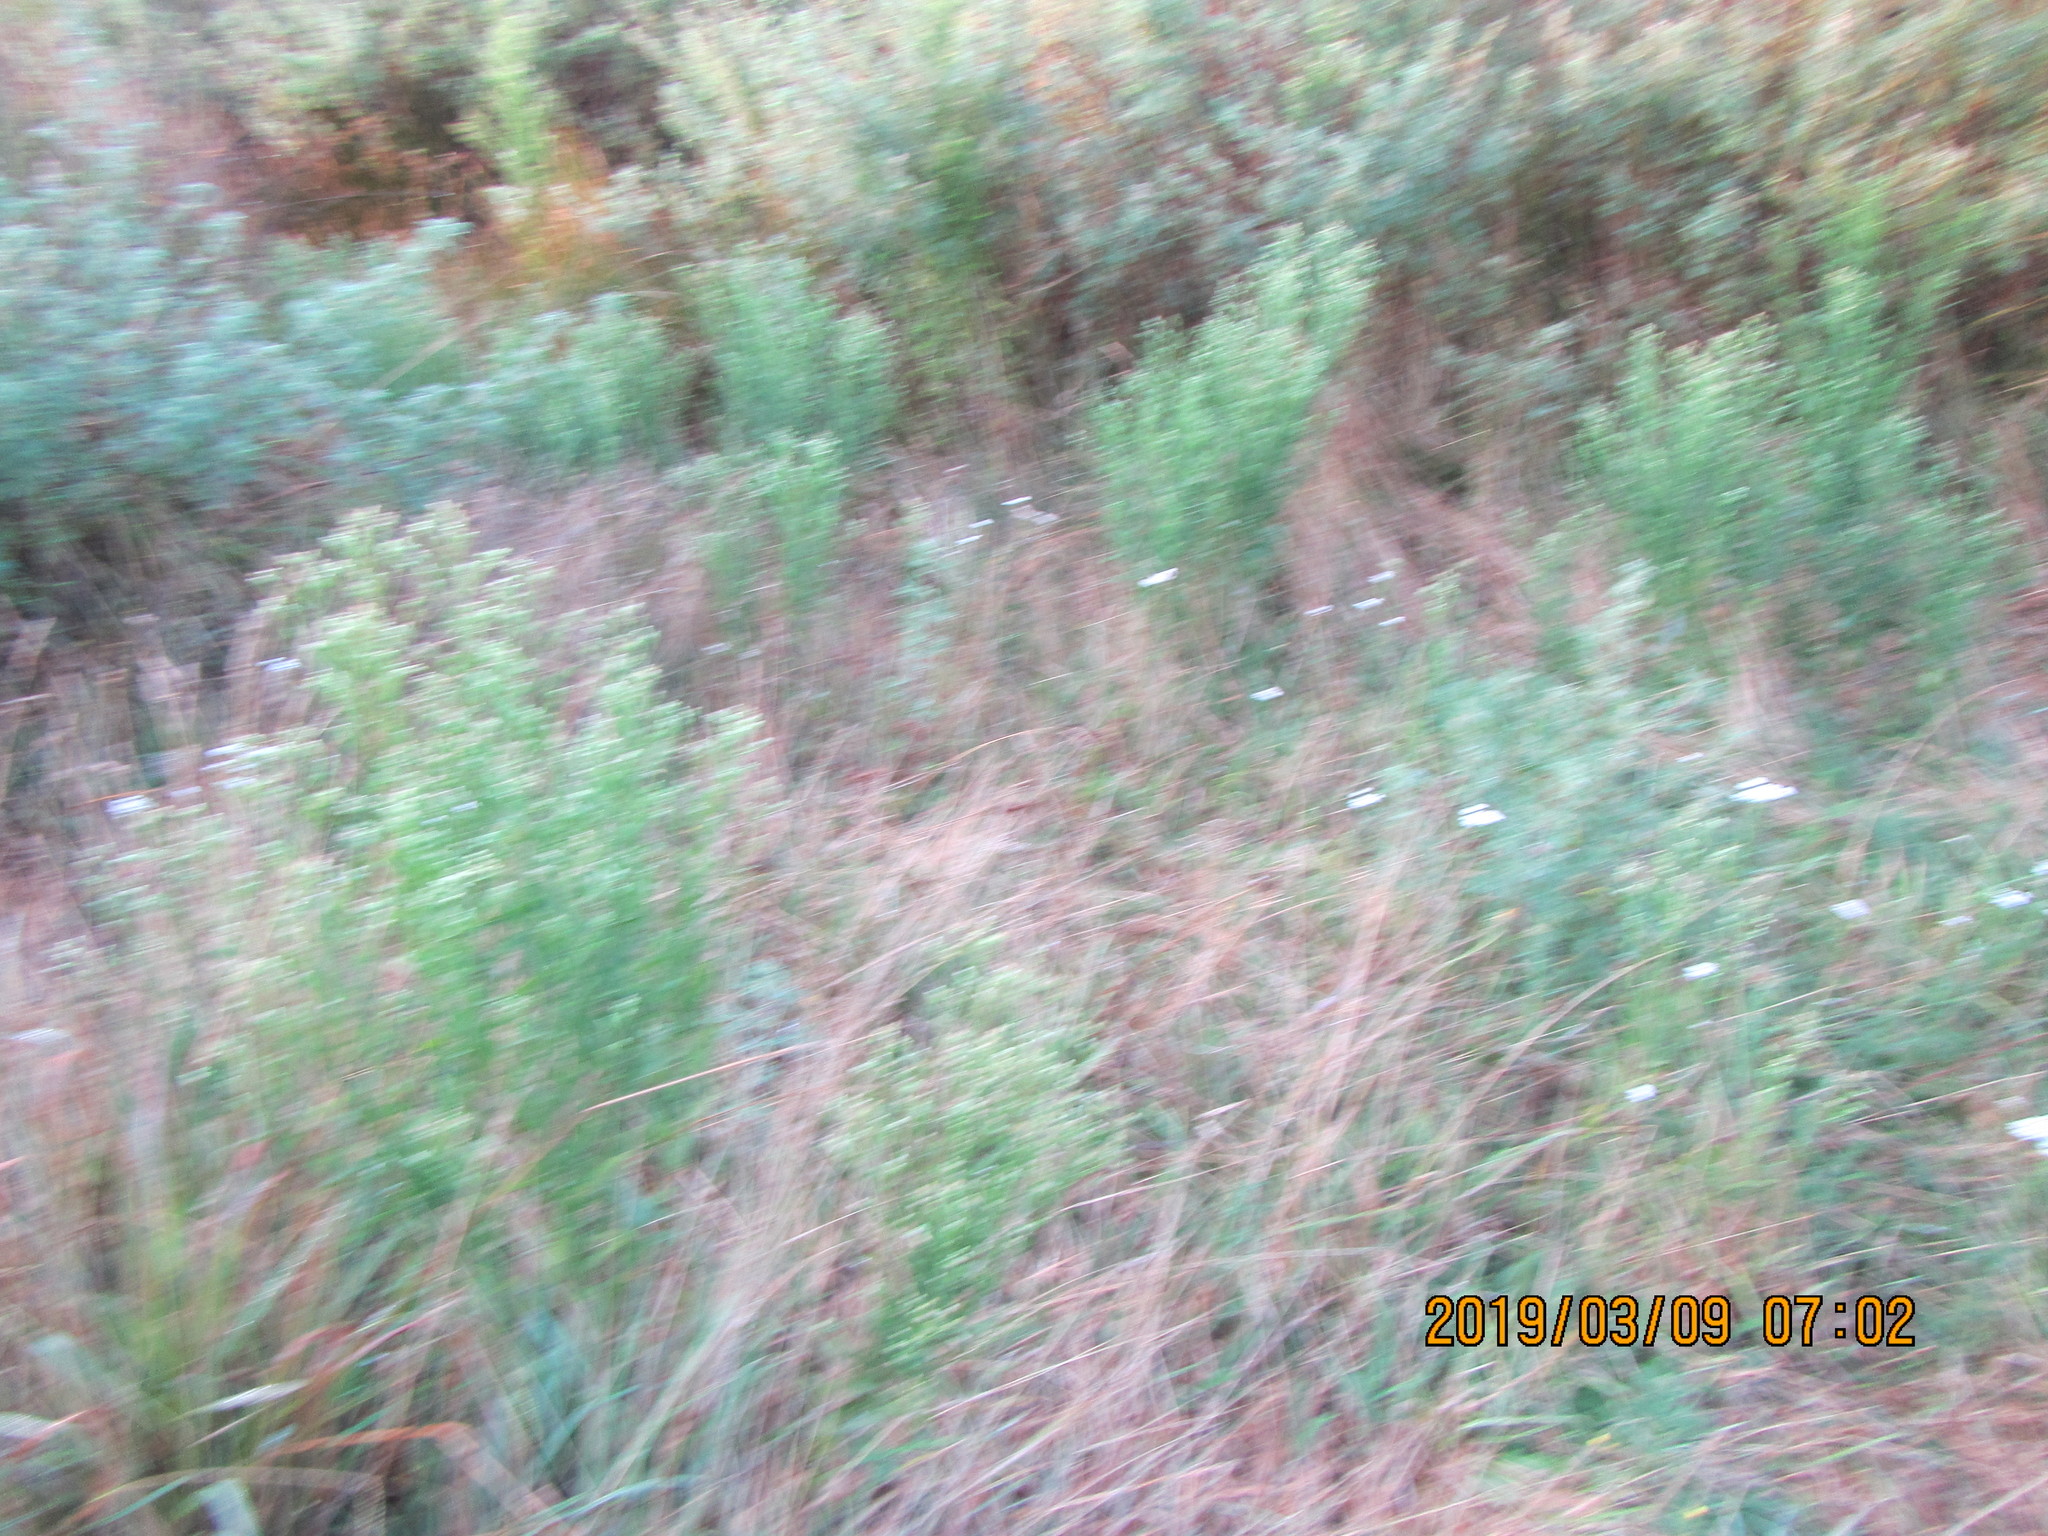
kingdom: Plantae
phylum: Tracheophyta
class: Magnoliopsida
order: Asterales
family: Asteraceae
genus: Erigeron
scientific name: Erigeron sumatrensis
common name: Daisy
